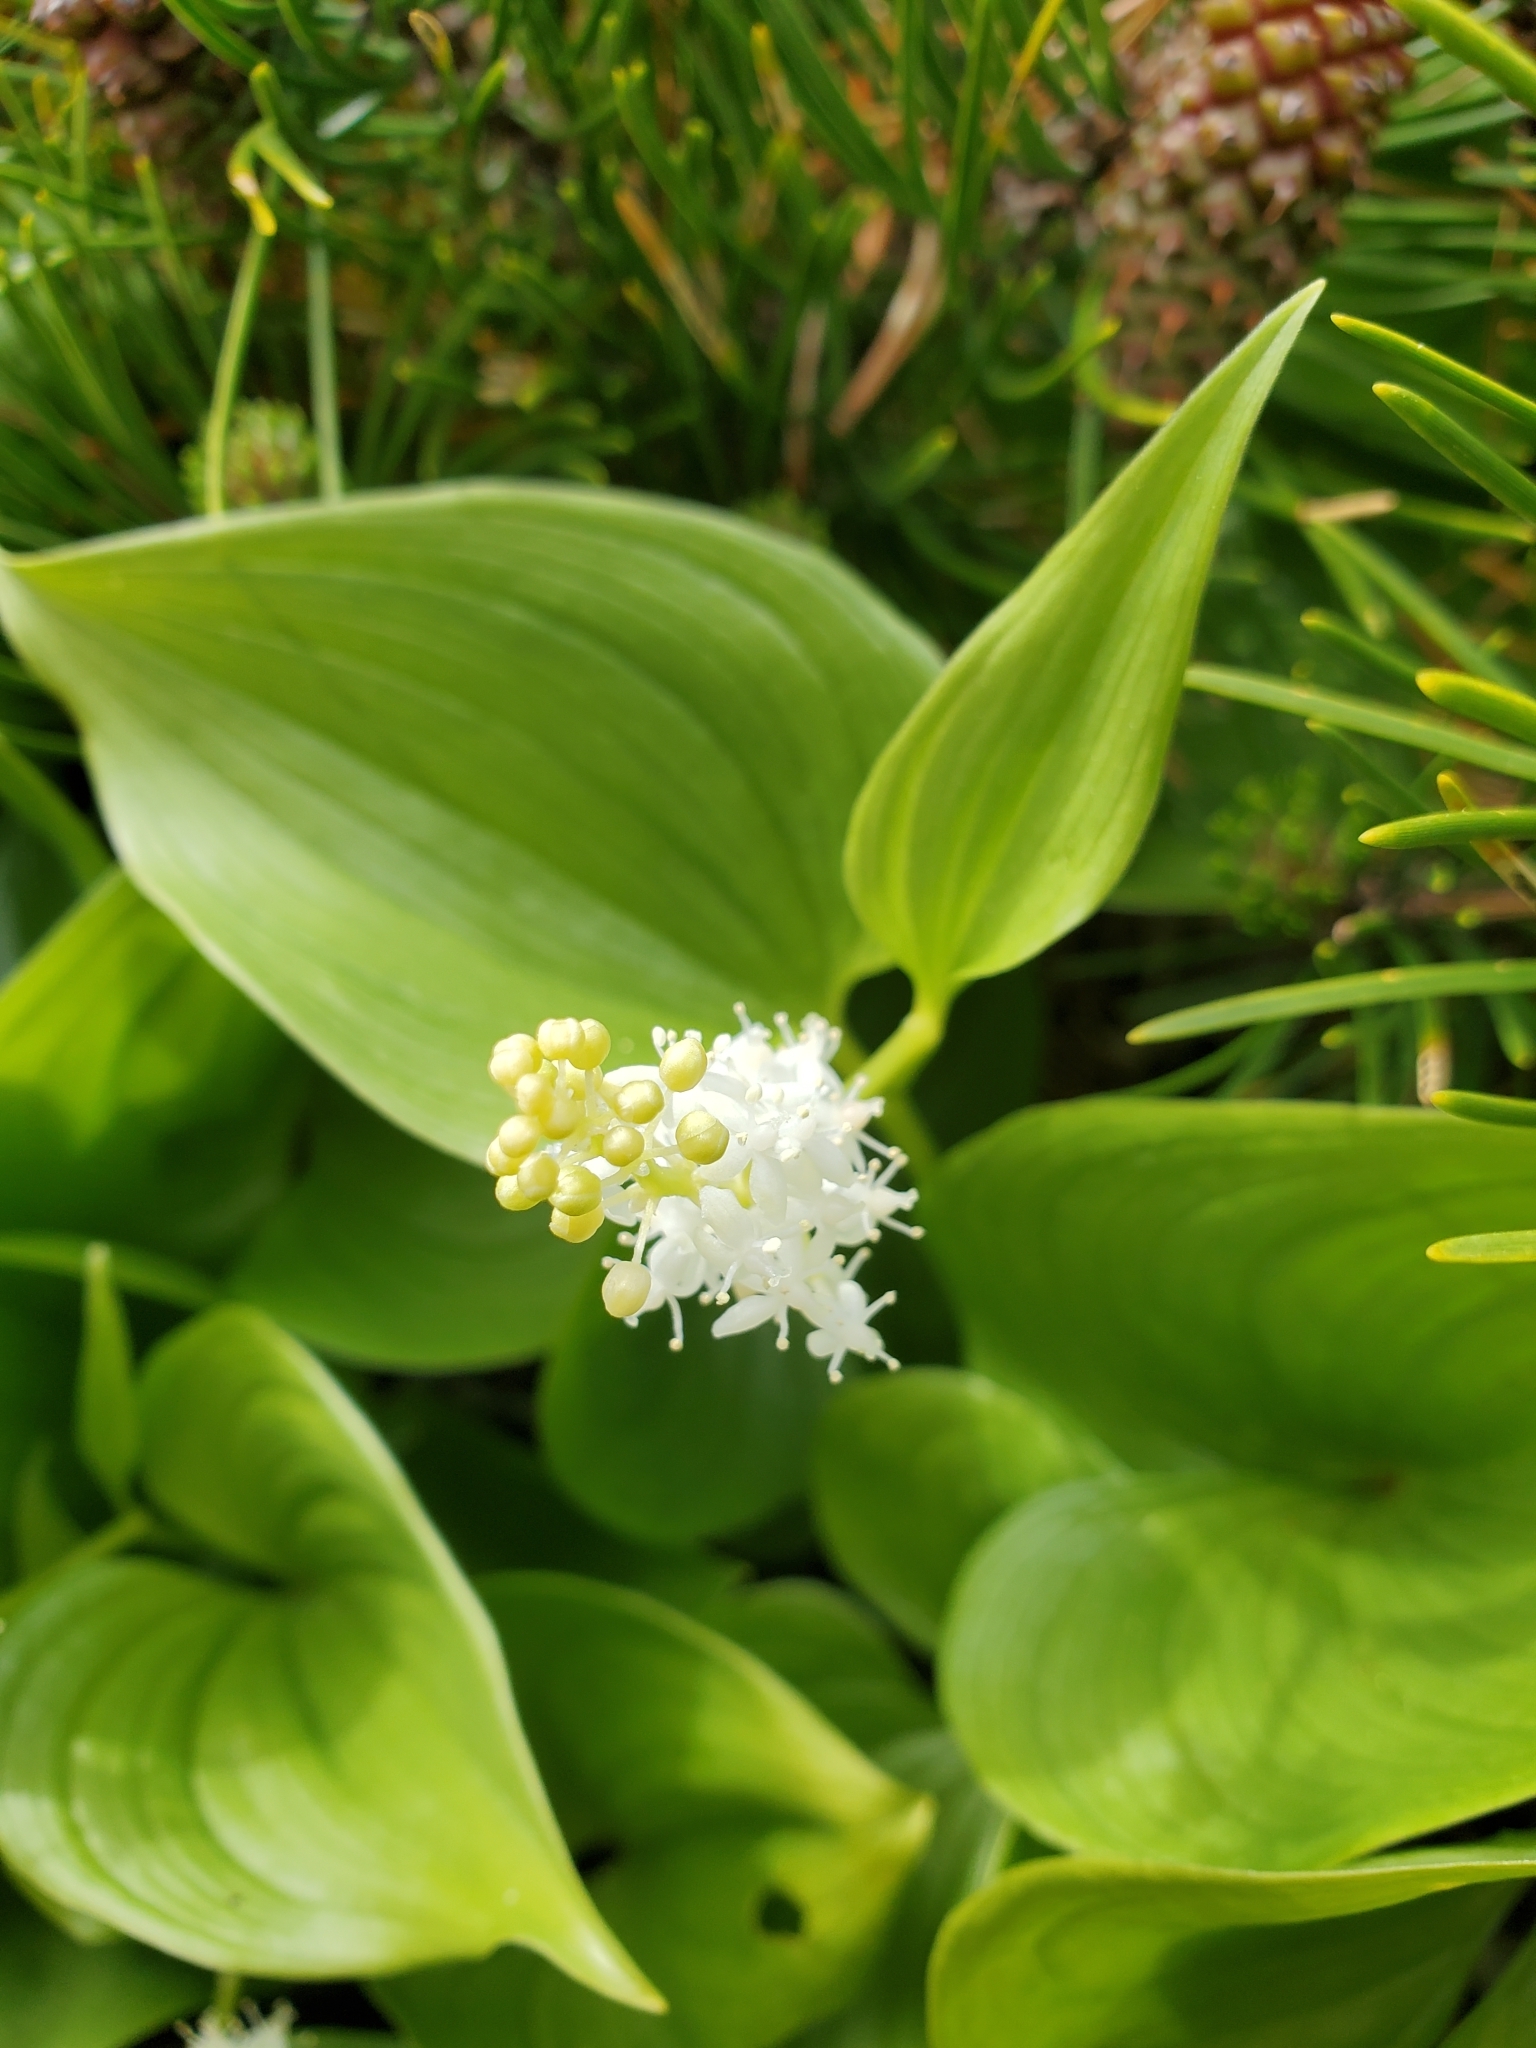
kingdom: Plantae
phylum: Tracheophyta
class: Liliopsida
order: Asparagales
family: Asparagaceae
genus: Maianthemum
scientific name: Maianthemum dilatatum
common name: False lily-of-the-valley
